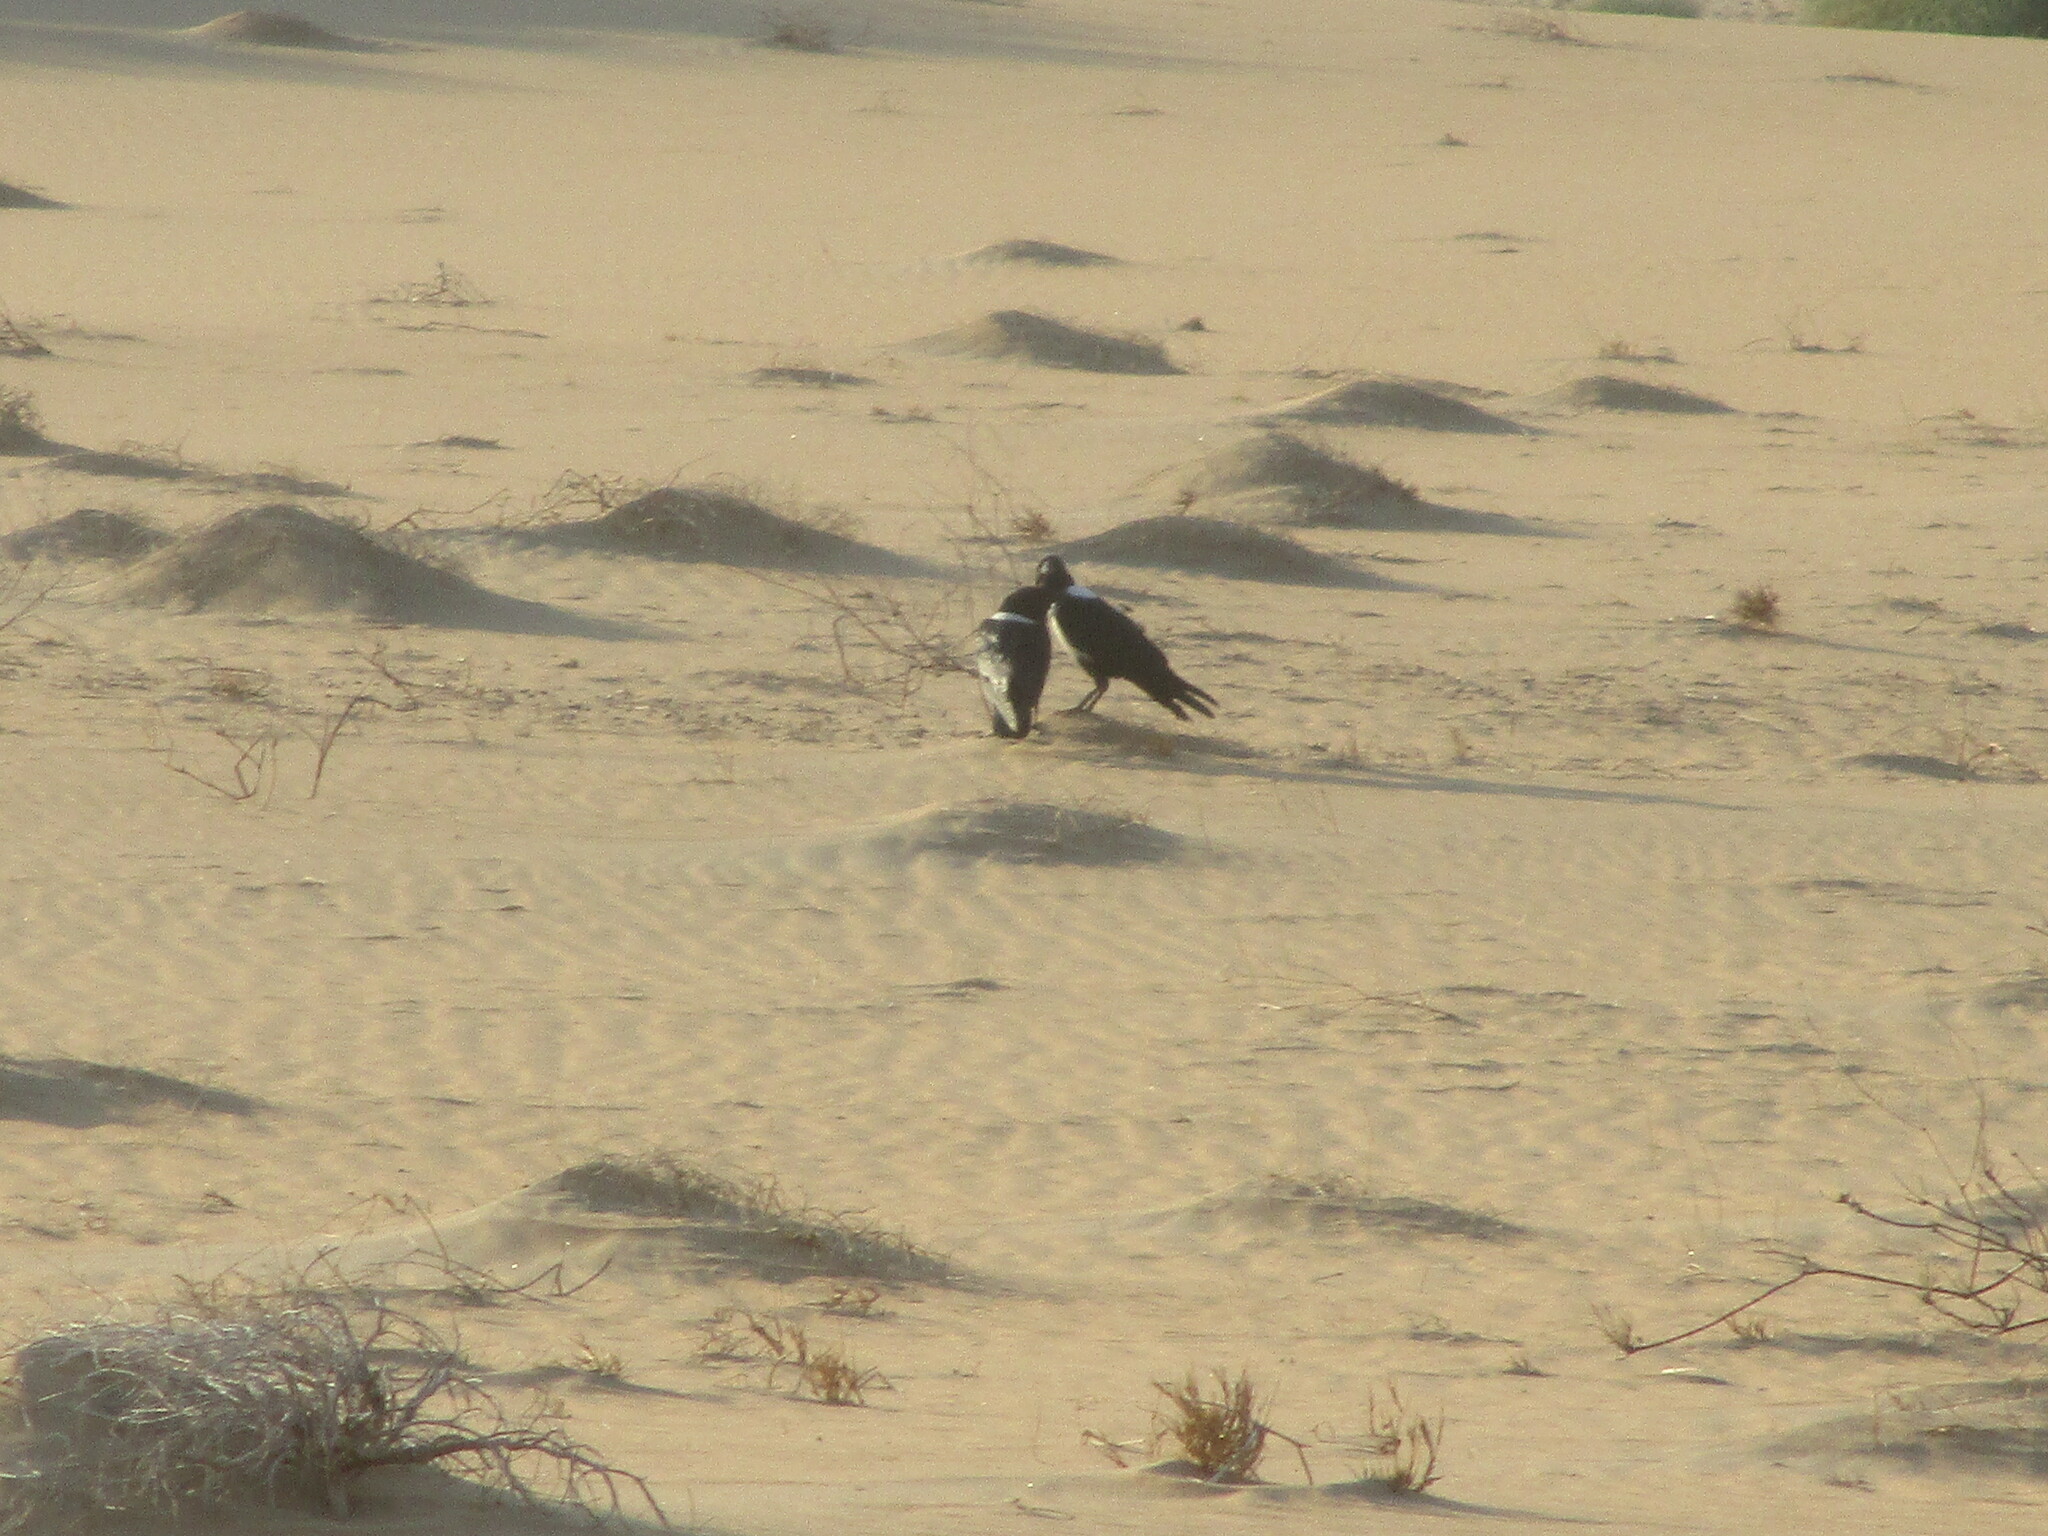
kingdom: Animalia
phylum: Chordata
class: Aves
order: Passeriformes
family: Corvidae
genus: Corvus
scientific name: Corvus albus
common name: Pied crow
